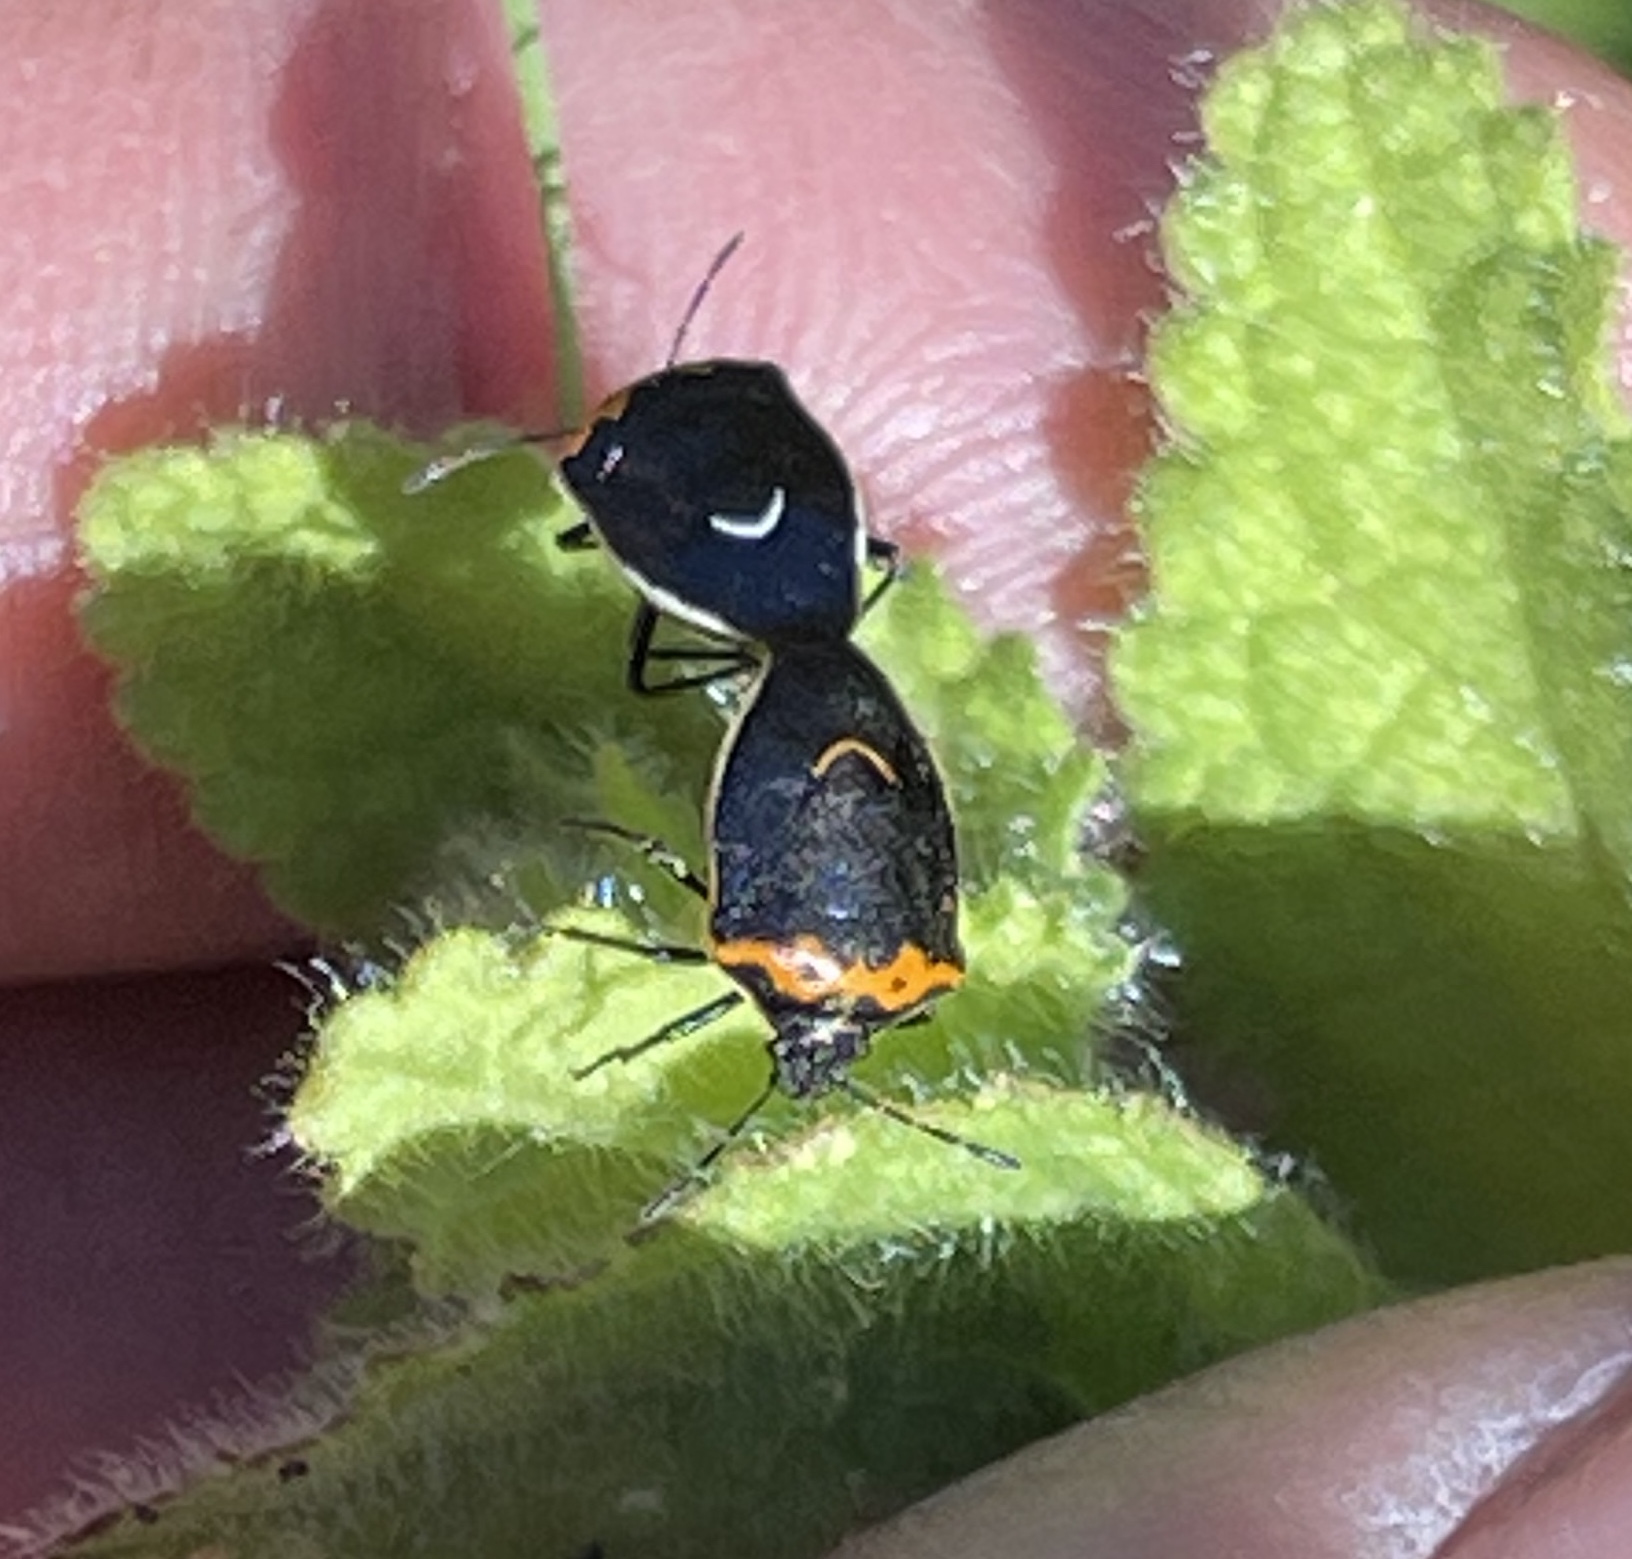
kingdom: Animalia
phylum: Arthropoda
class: Insecta
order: Hemiptera
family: Pentatomidae
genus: Cosmopepla
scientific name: Cosmopepla conspicillaris
